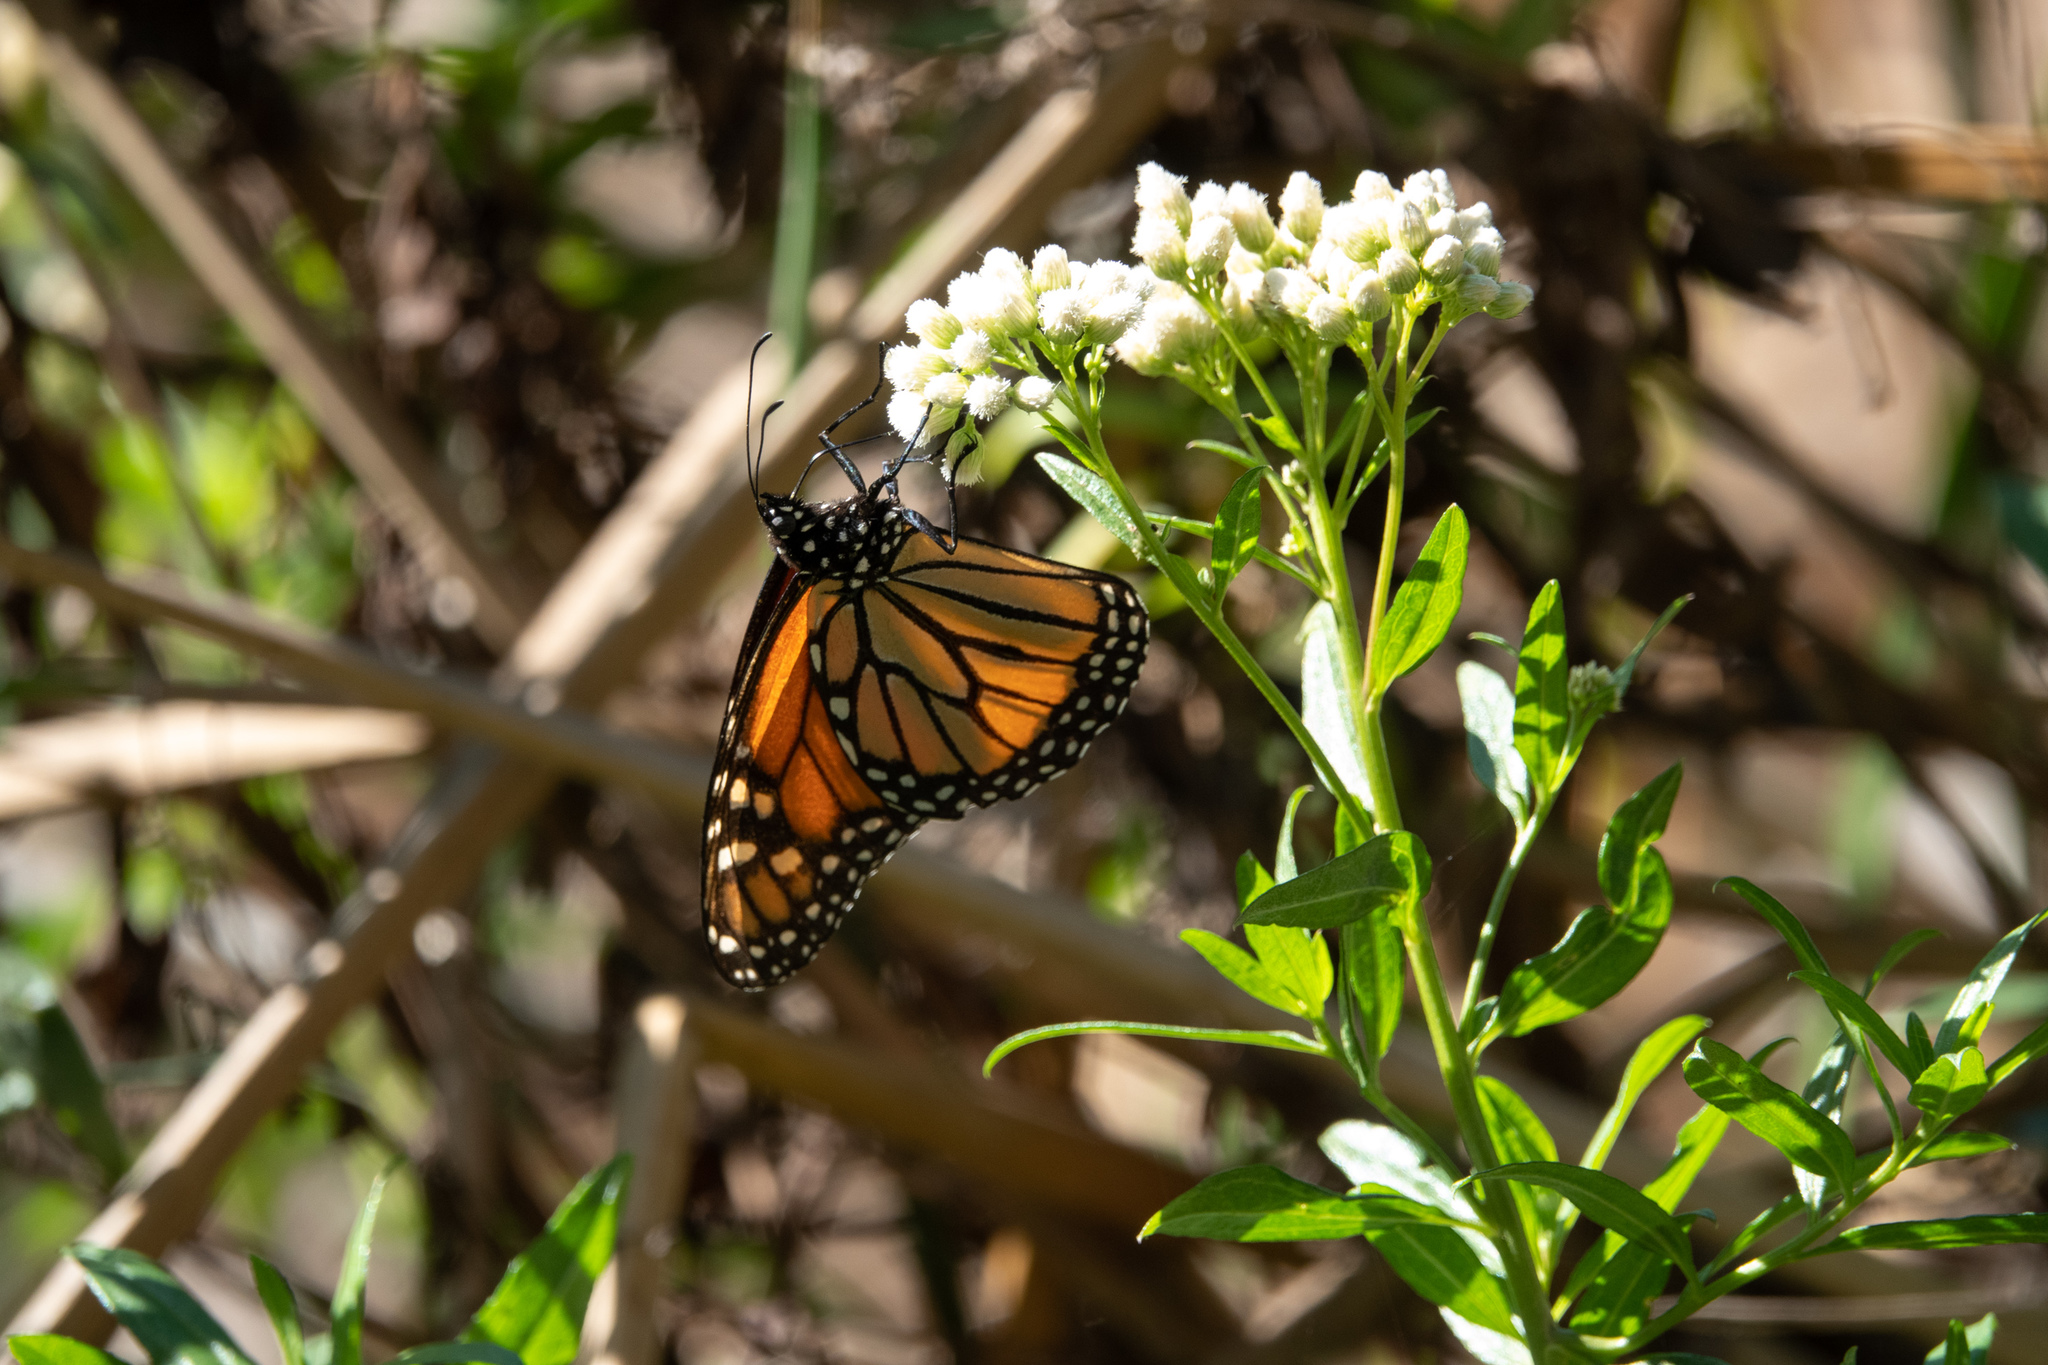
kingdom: Animalia
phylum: Arthropoda
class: Insecta
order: Lepidoptera
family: Nymphalidae
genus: Danaus
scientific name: Danaus plexippus
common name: Monarch
